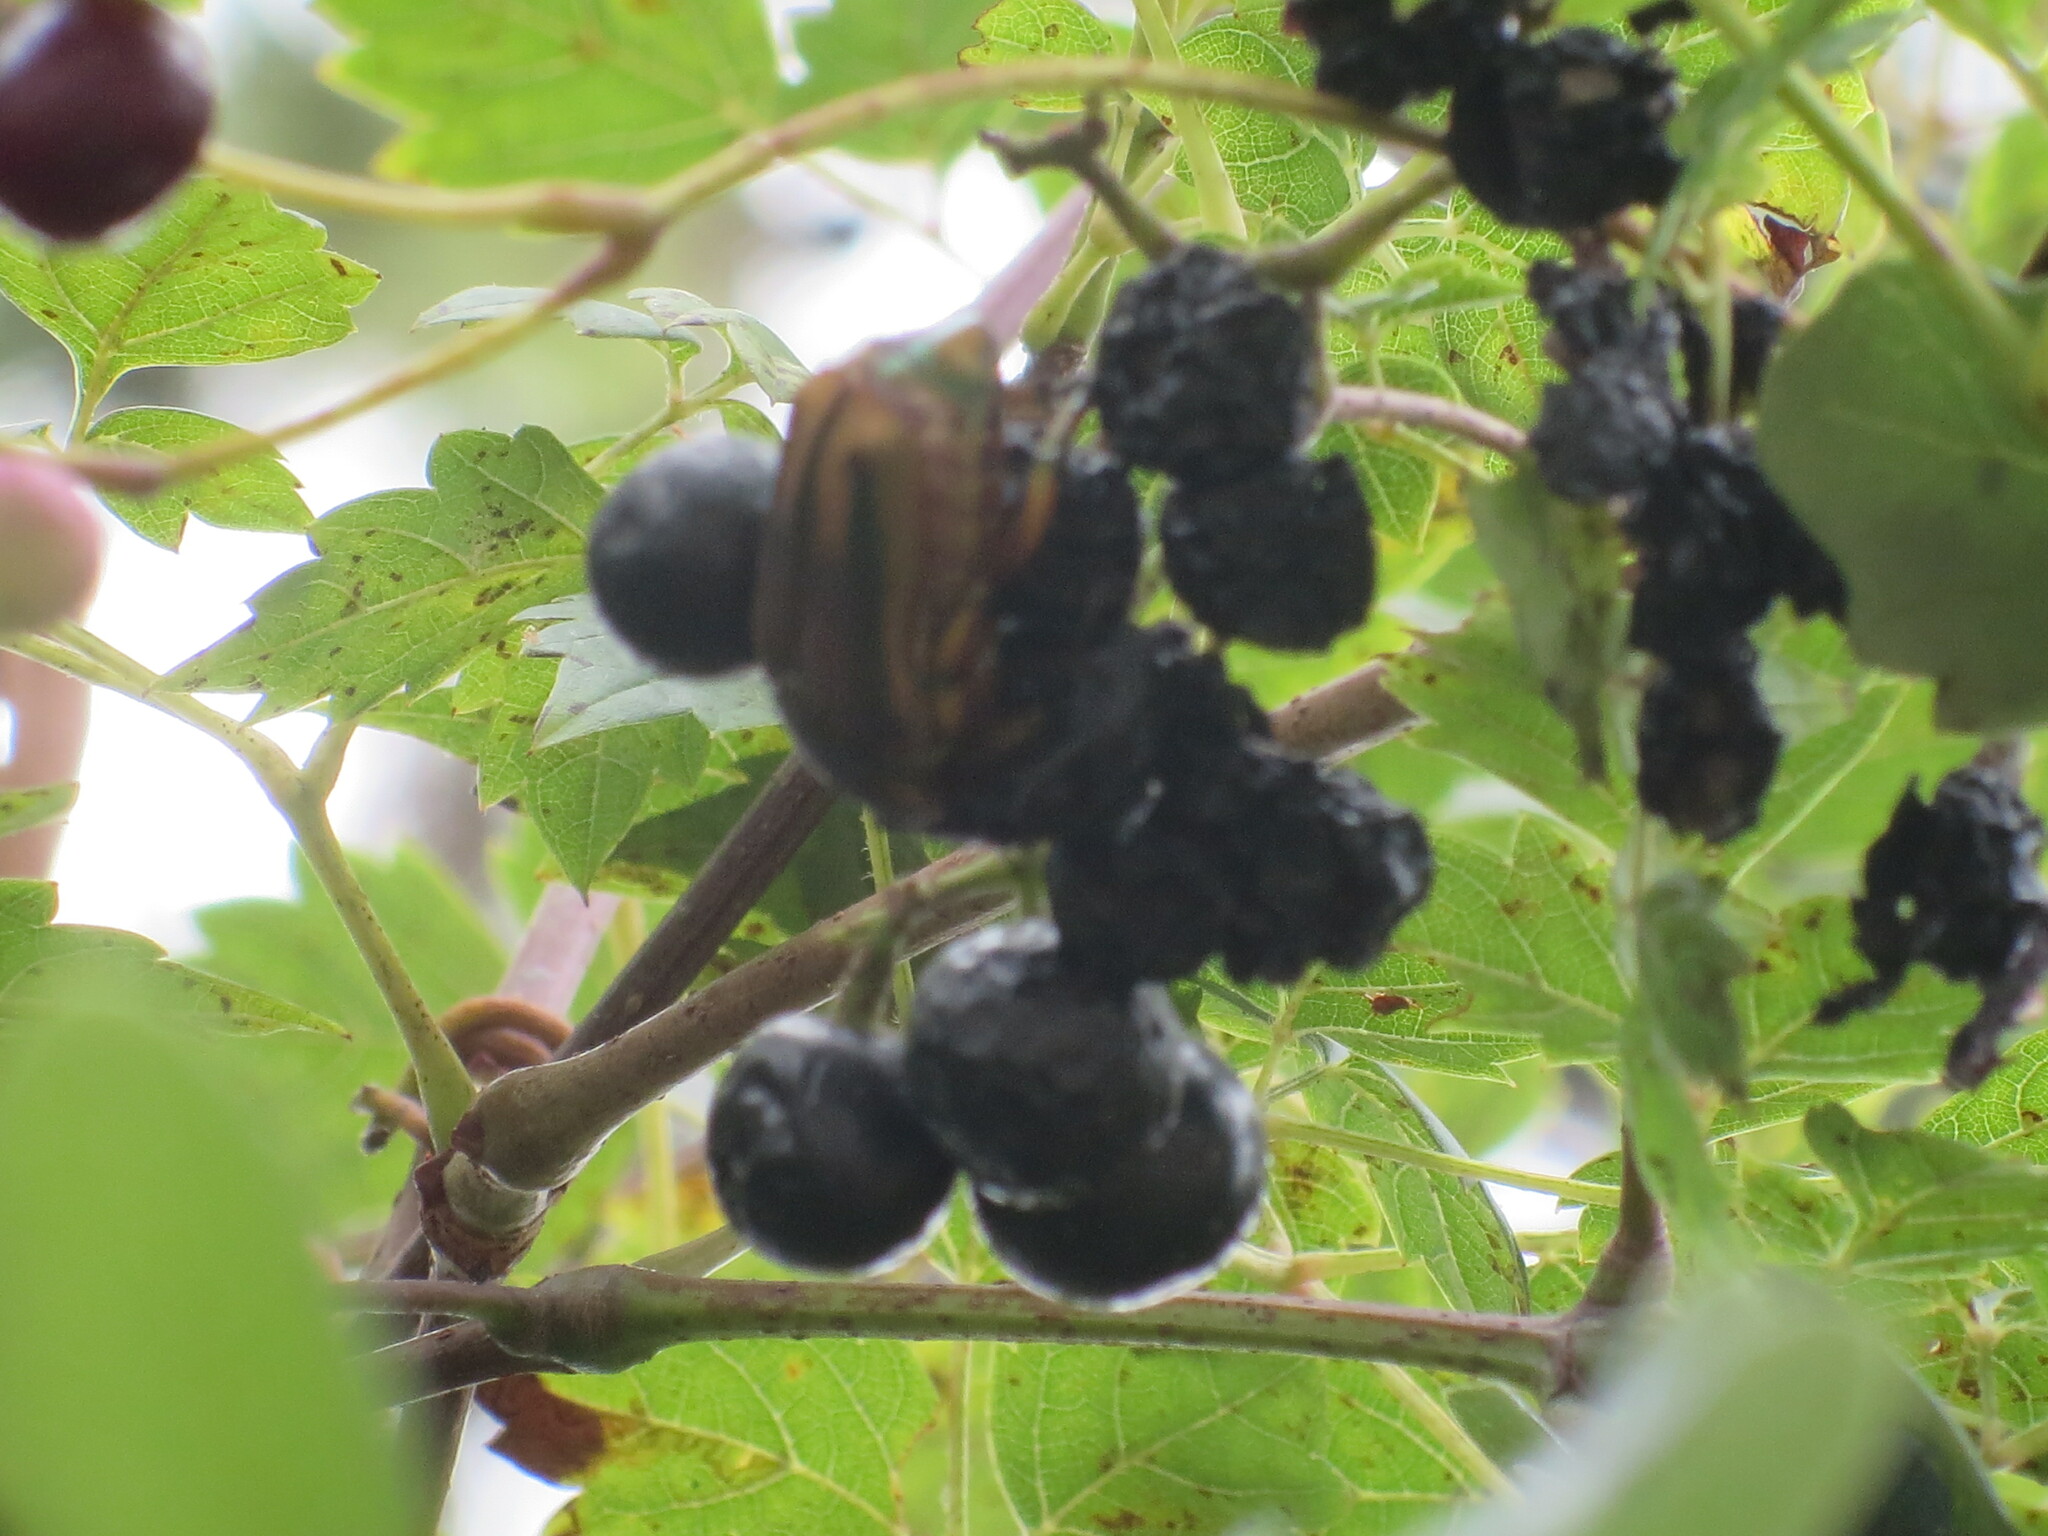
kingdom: Animalia
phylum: Arthropoda
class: Insecta
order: Coleoptera
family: Scarabaeidae
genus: Cotinis
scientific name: Cotinis nitida
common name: Common green june beetle
